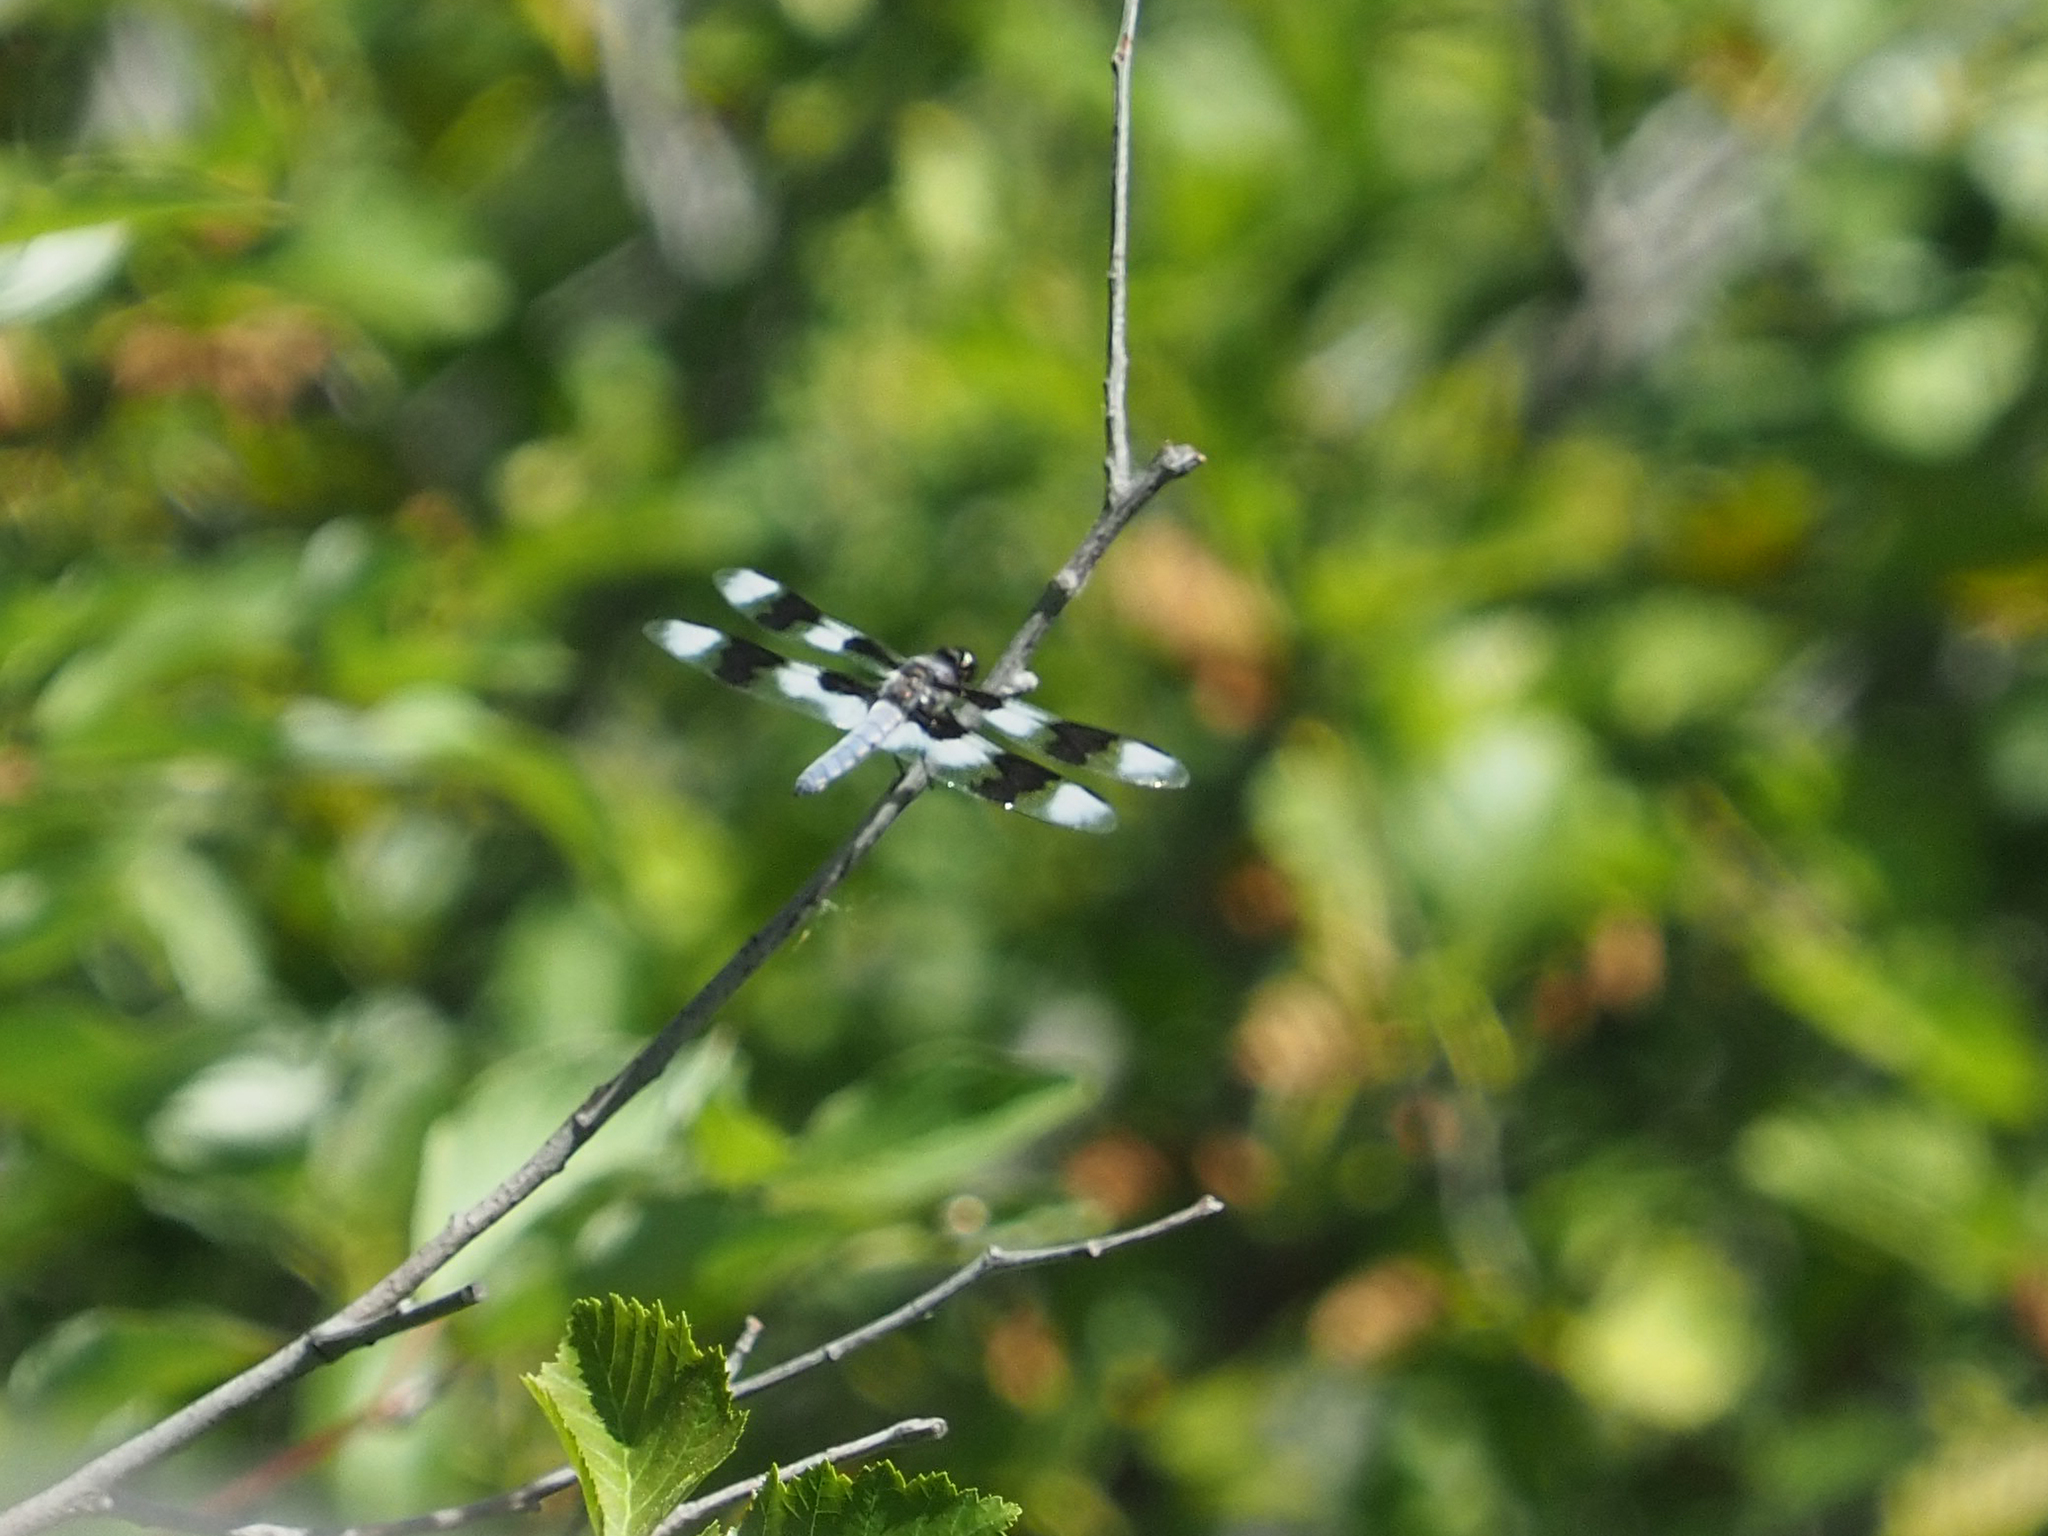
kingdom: Animalia
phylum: Arthropoda
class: Insecta
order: Odonata
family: Libellulidae
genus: Libellula
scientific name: Libellula forensis
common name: Eight-spotted skimmer
